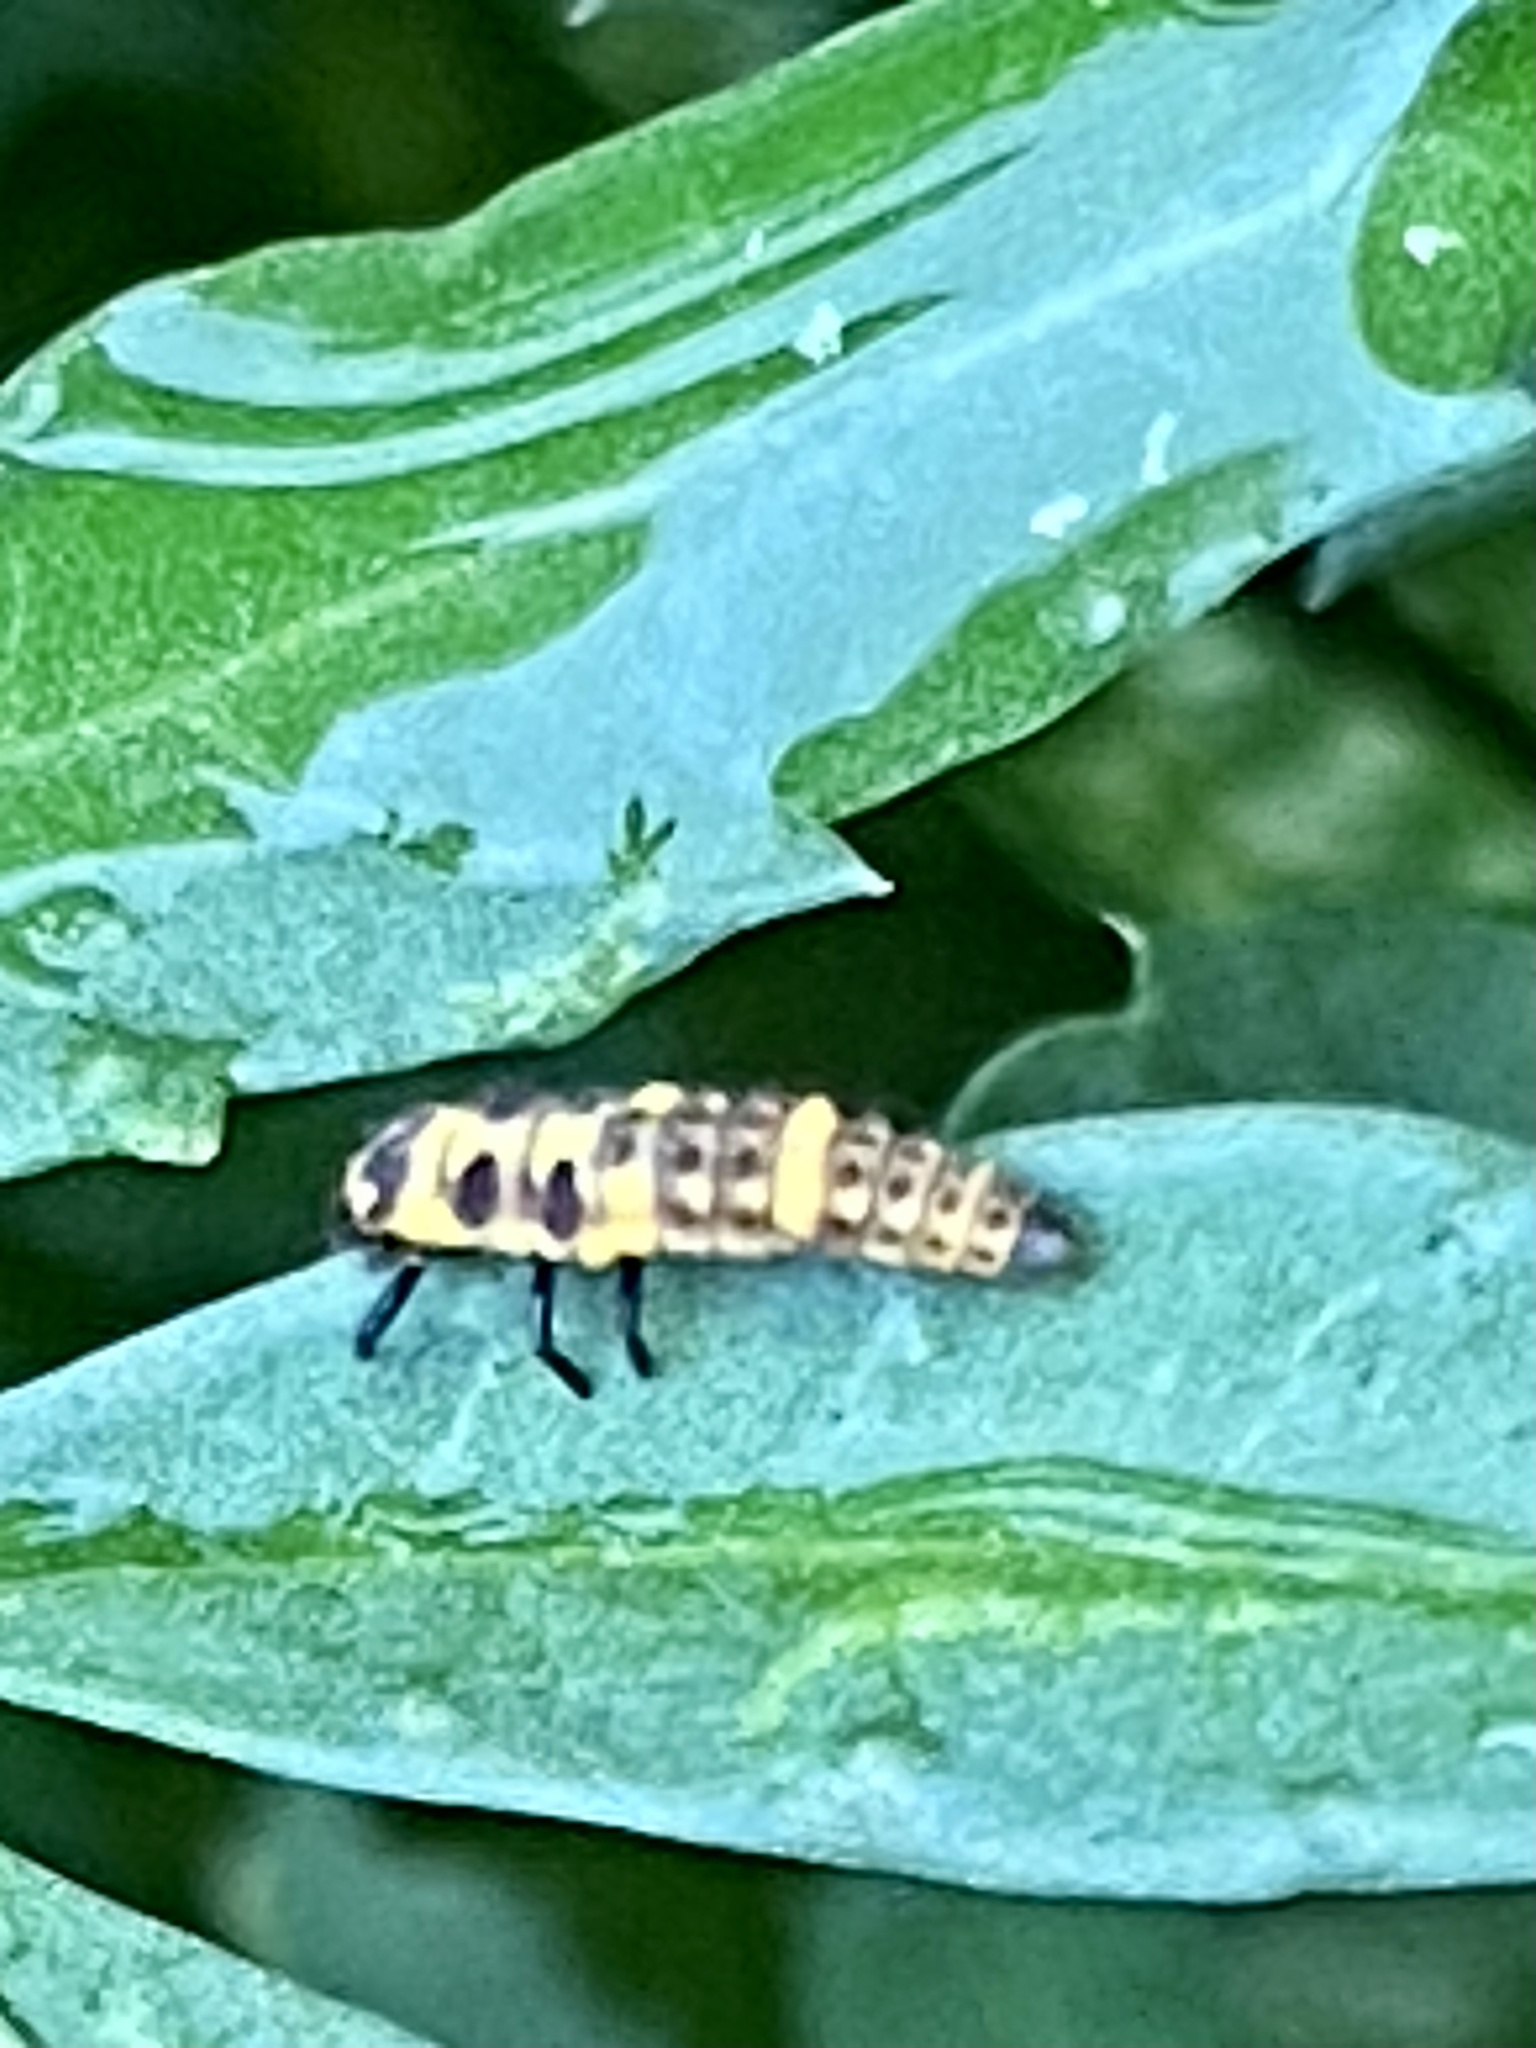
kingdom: Animalia
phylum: Arthropoda
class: Insecta
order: Coleoptera
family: Coccinellidae
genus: Coleomegilla
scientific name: Coleomegilla maculata
